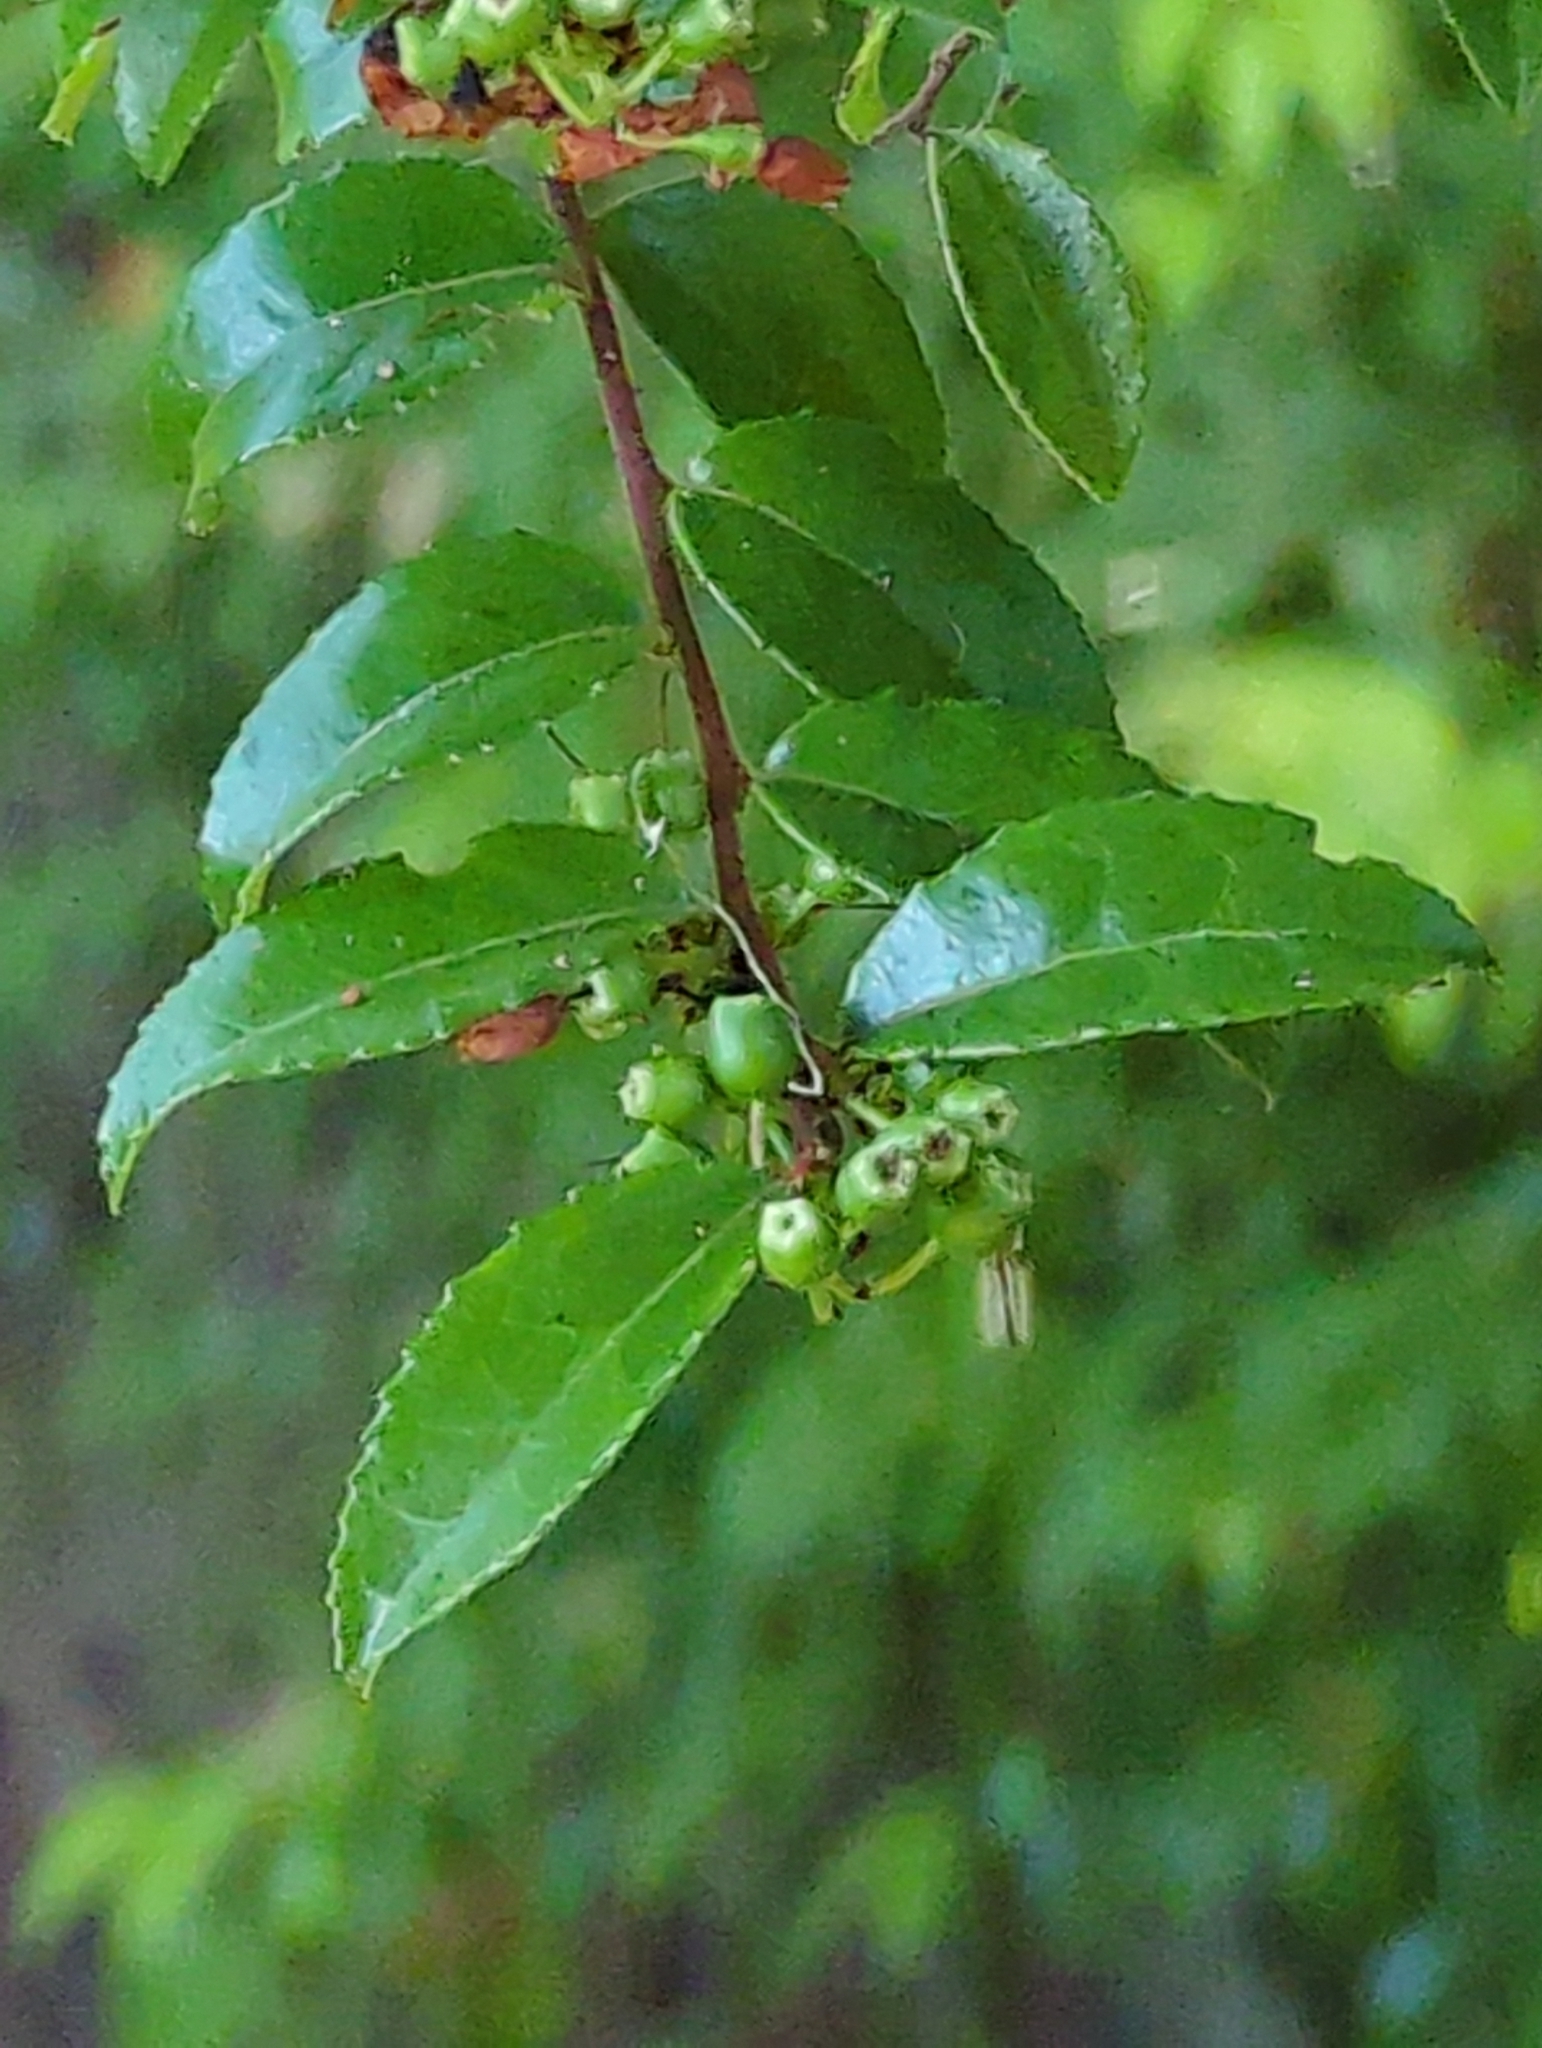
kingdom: Plantae
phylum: Tracheophyta
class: Magnoliopsida
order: Ericales
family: Ericaceae
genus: Vaccinium
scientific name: Vaccinium ovatum
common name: California-huckleberry
